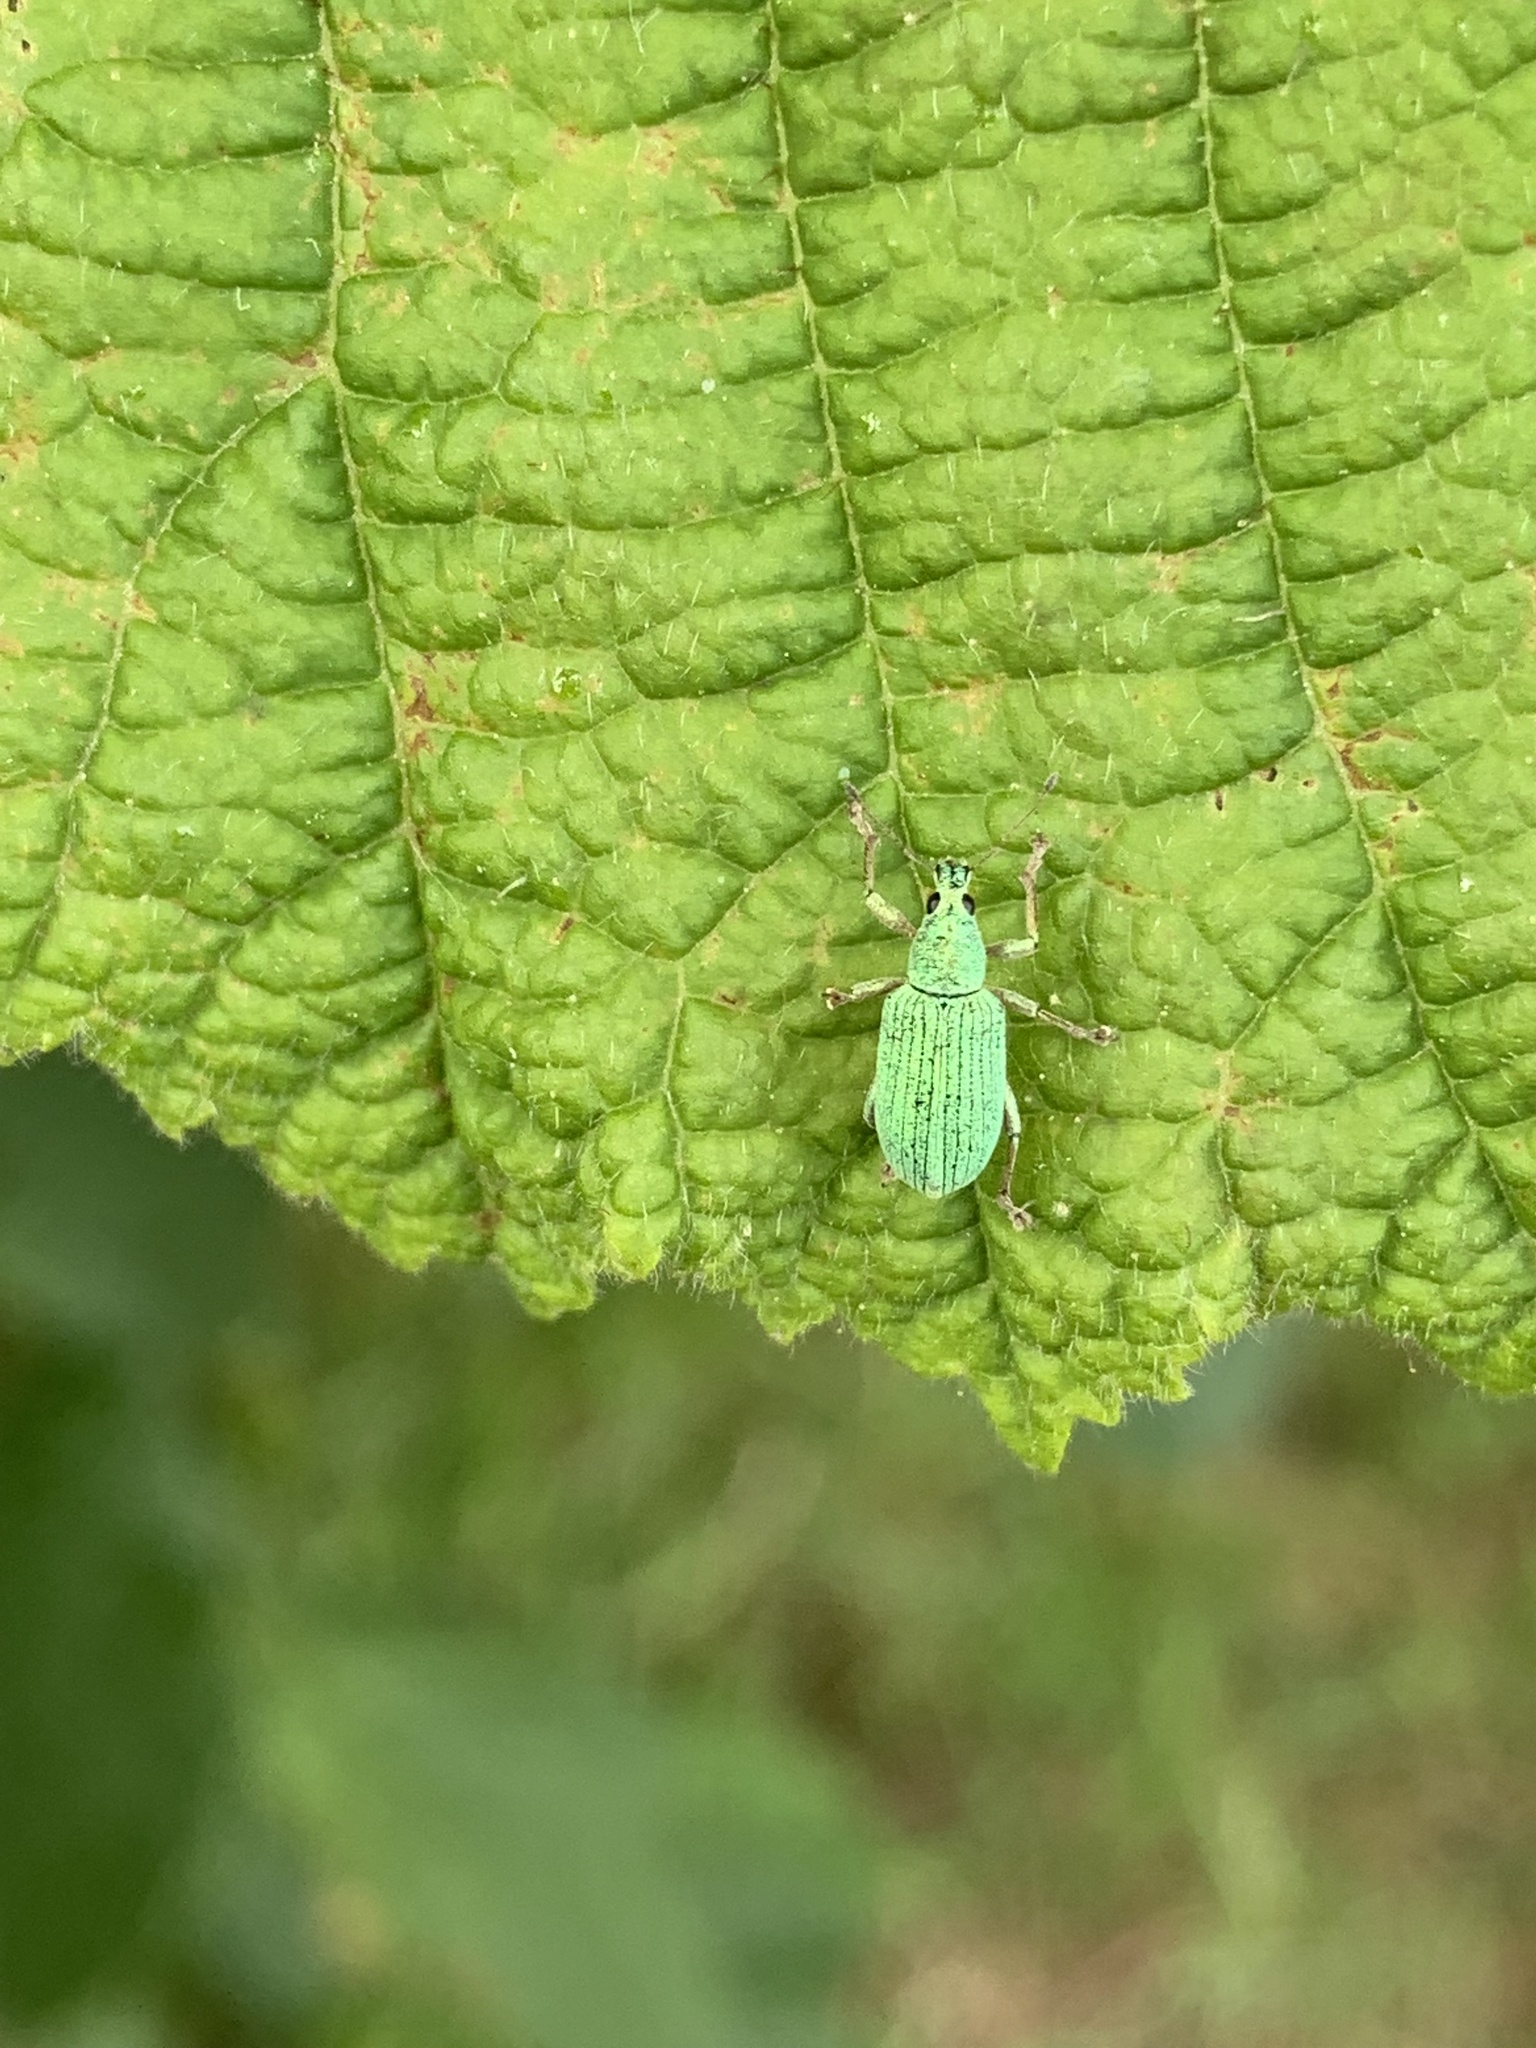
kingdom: Animalia
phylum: Arthropoda
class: Insecta
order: Coleoptera
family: Curculionidae
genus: Polydrusus
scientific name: Polydrusus formosus
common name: Weevil
